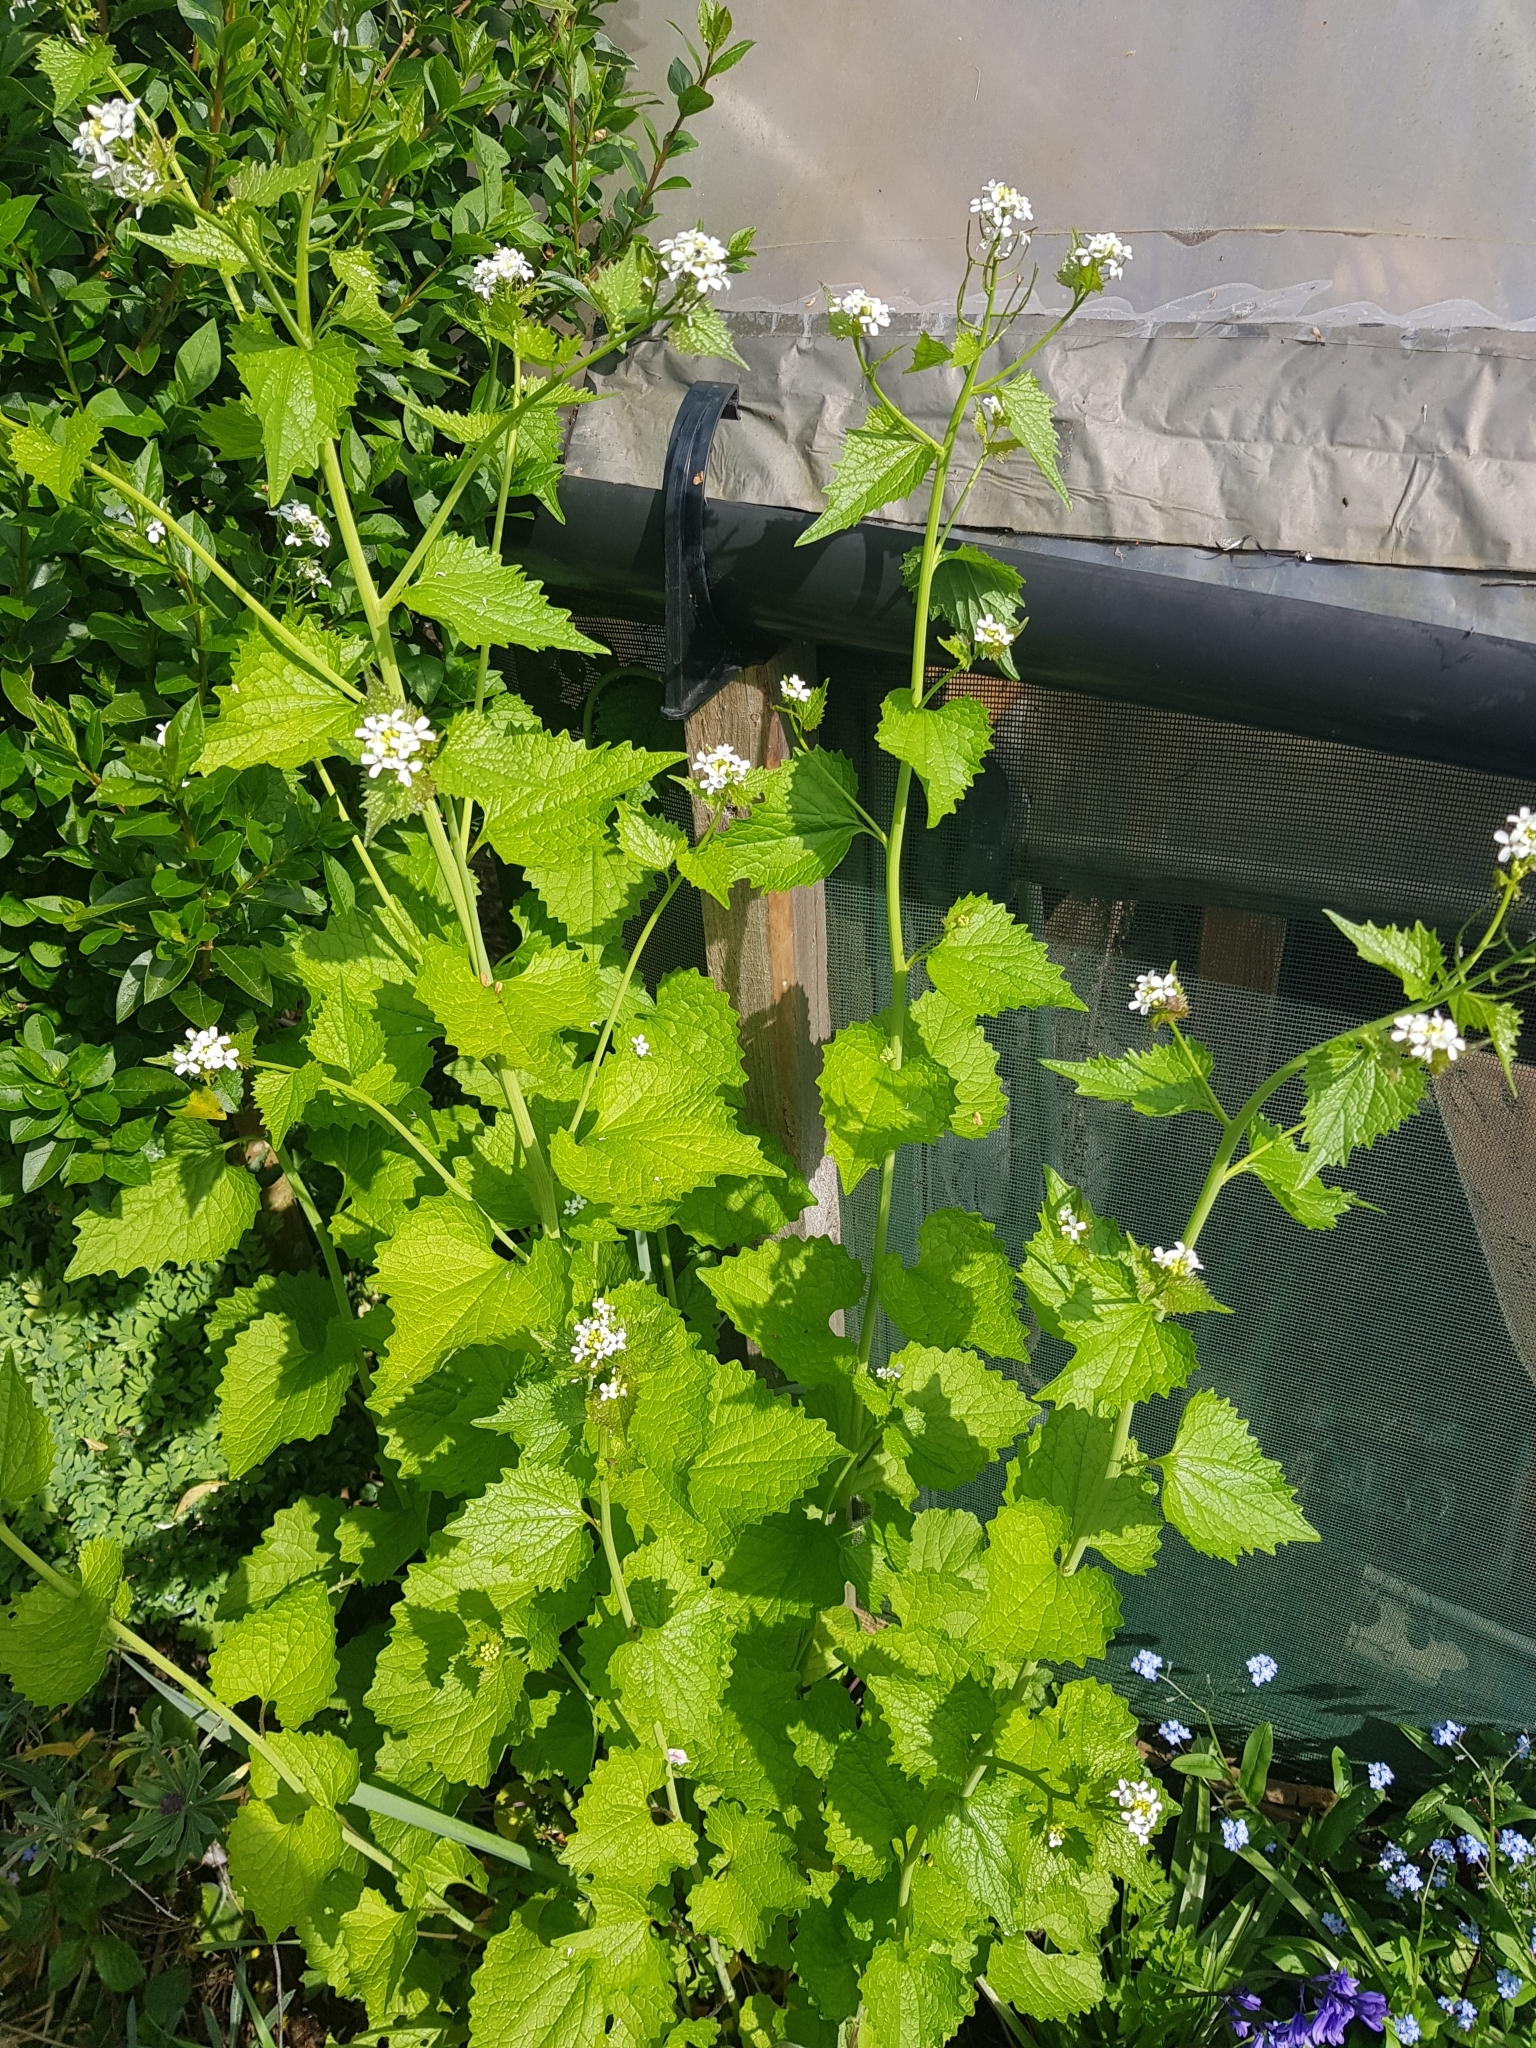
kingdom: Plantae
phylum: Tracheophyta
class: Magnoliopsida
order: Brassicales
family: Brassicaceae
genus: Alliaria
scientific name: Alliaria petiolata
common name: Garlic mustard
